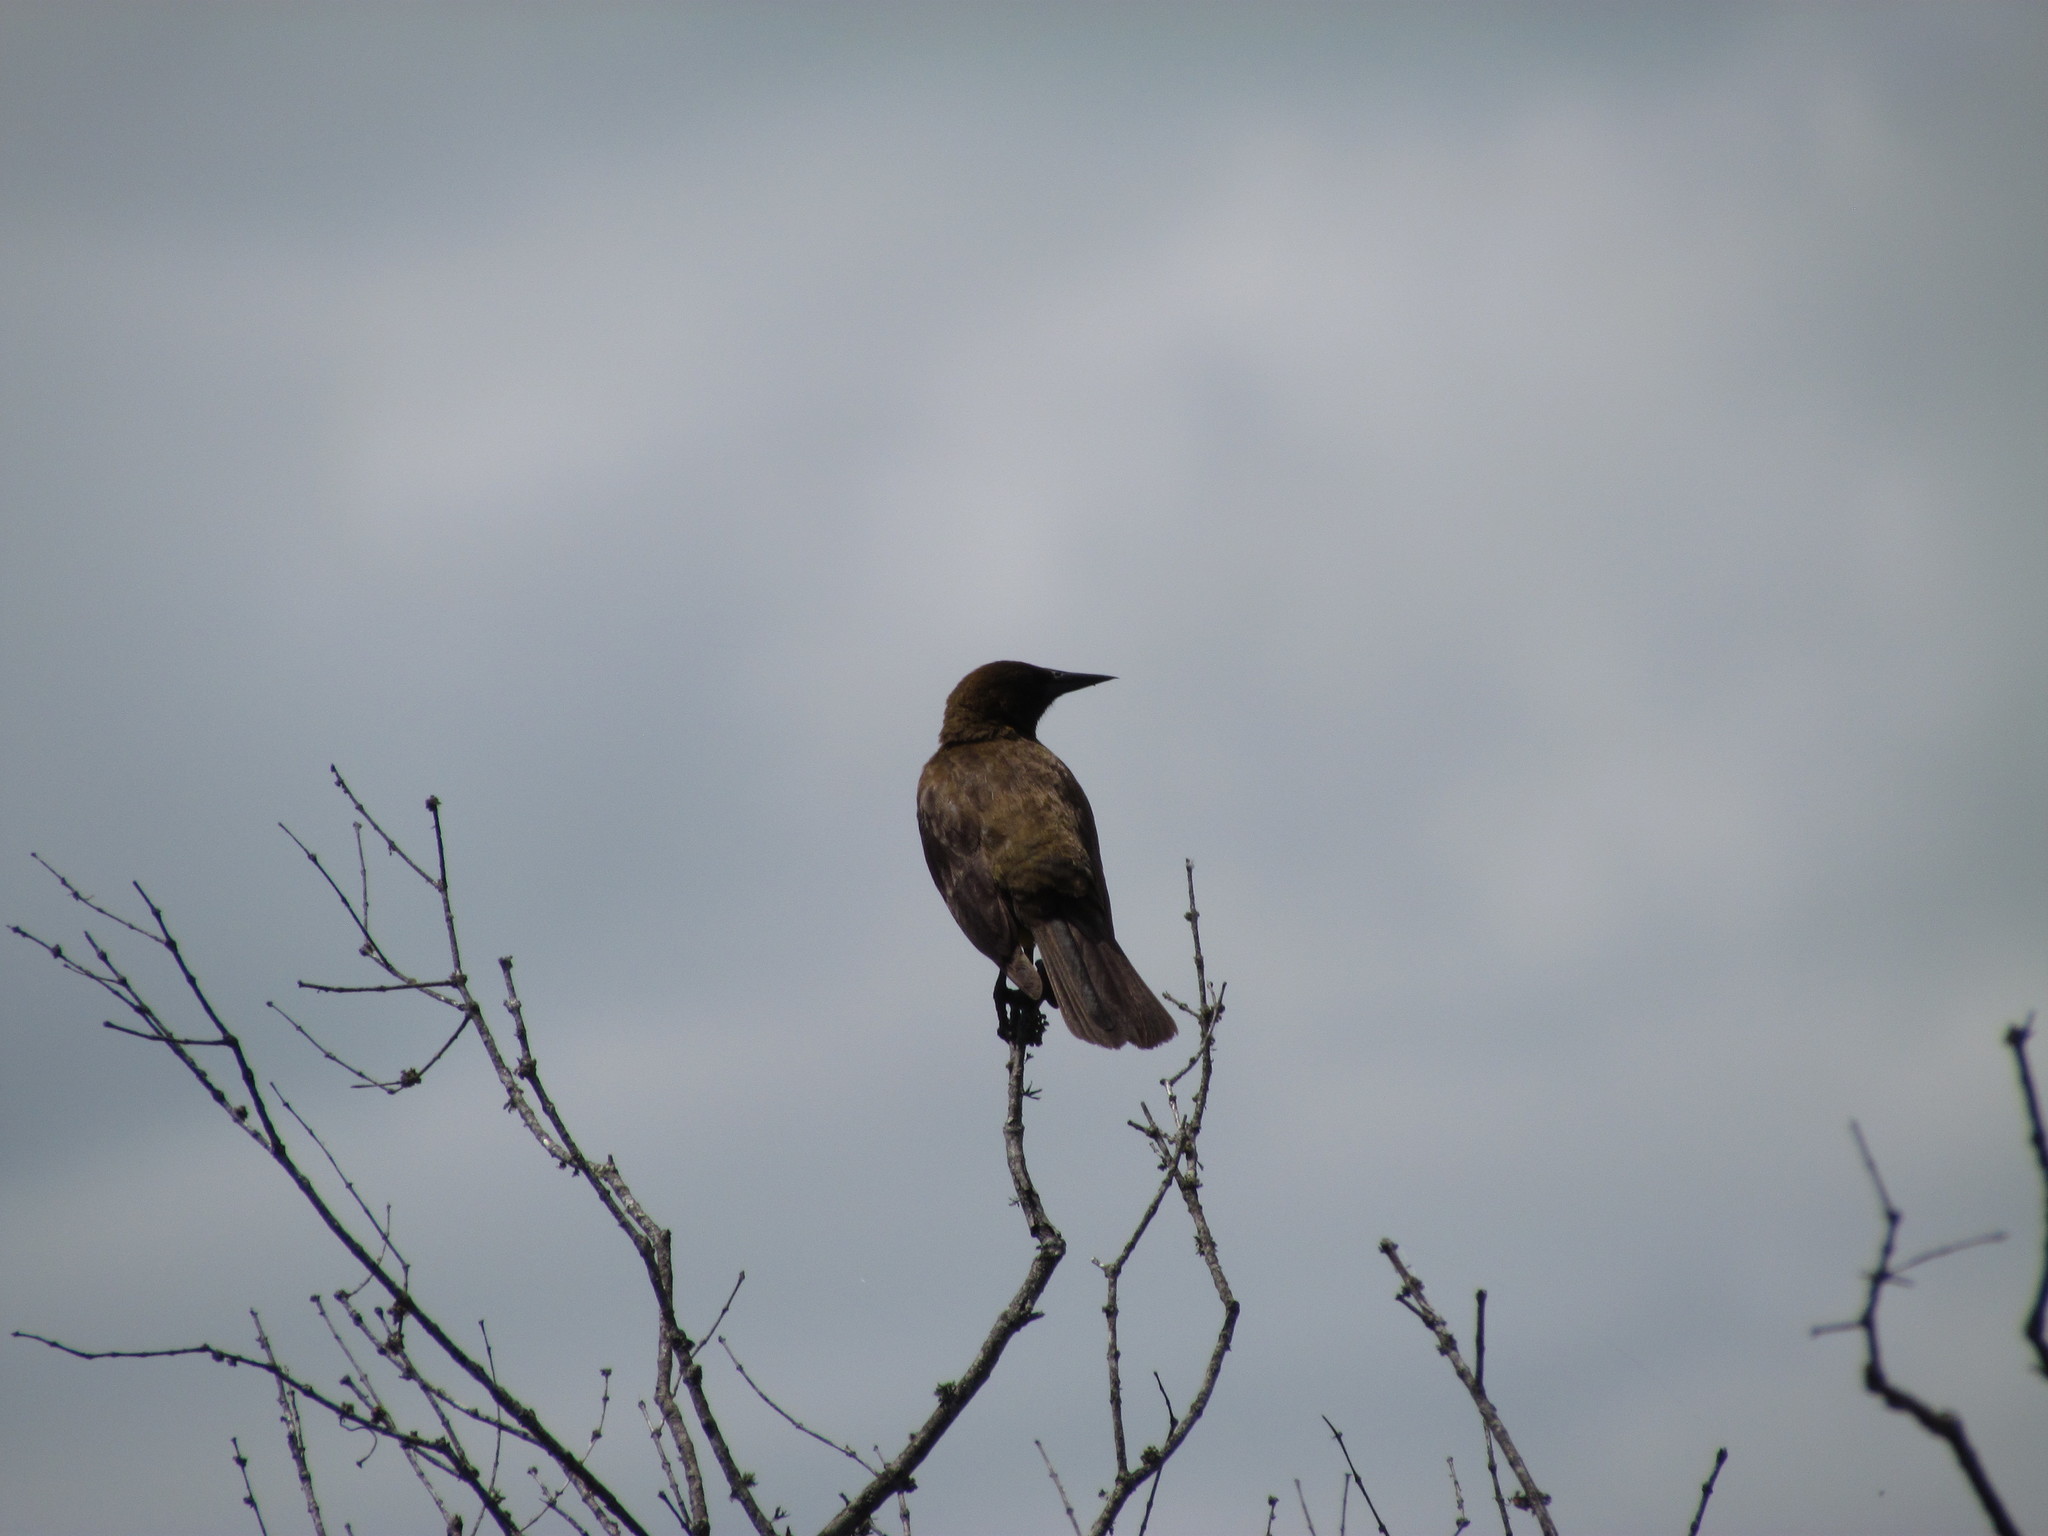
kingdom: Animalia
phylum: Chordata
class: Aves
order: Passeriformes
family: Icteridae
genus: Pseudoleistes
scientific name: Pseudoleistes virescens
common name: Brown-and-yellow marshbird
